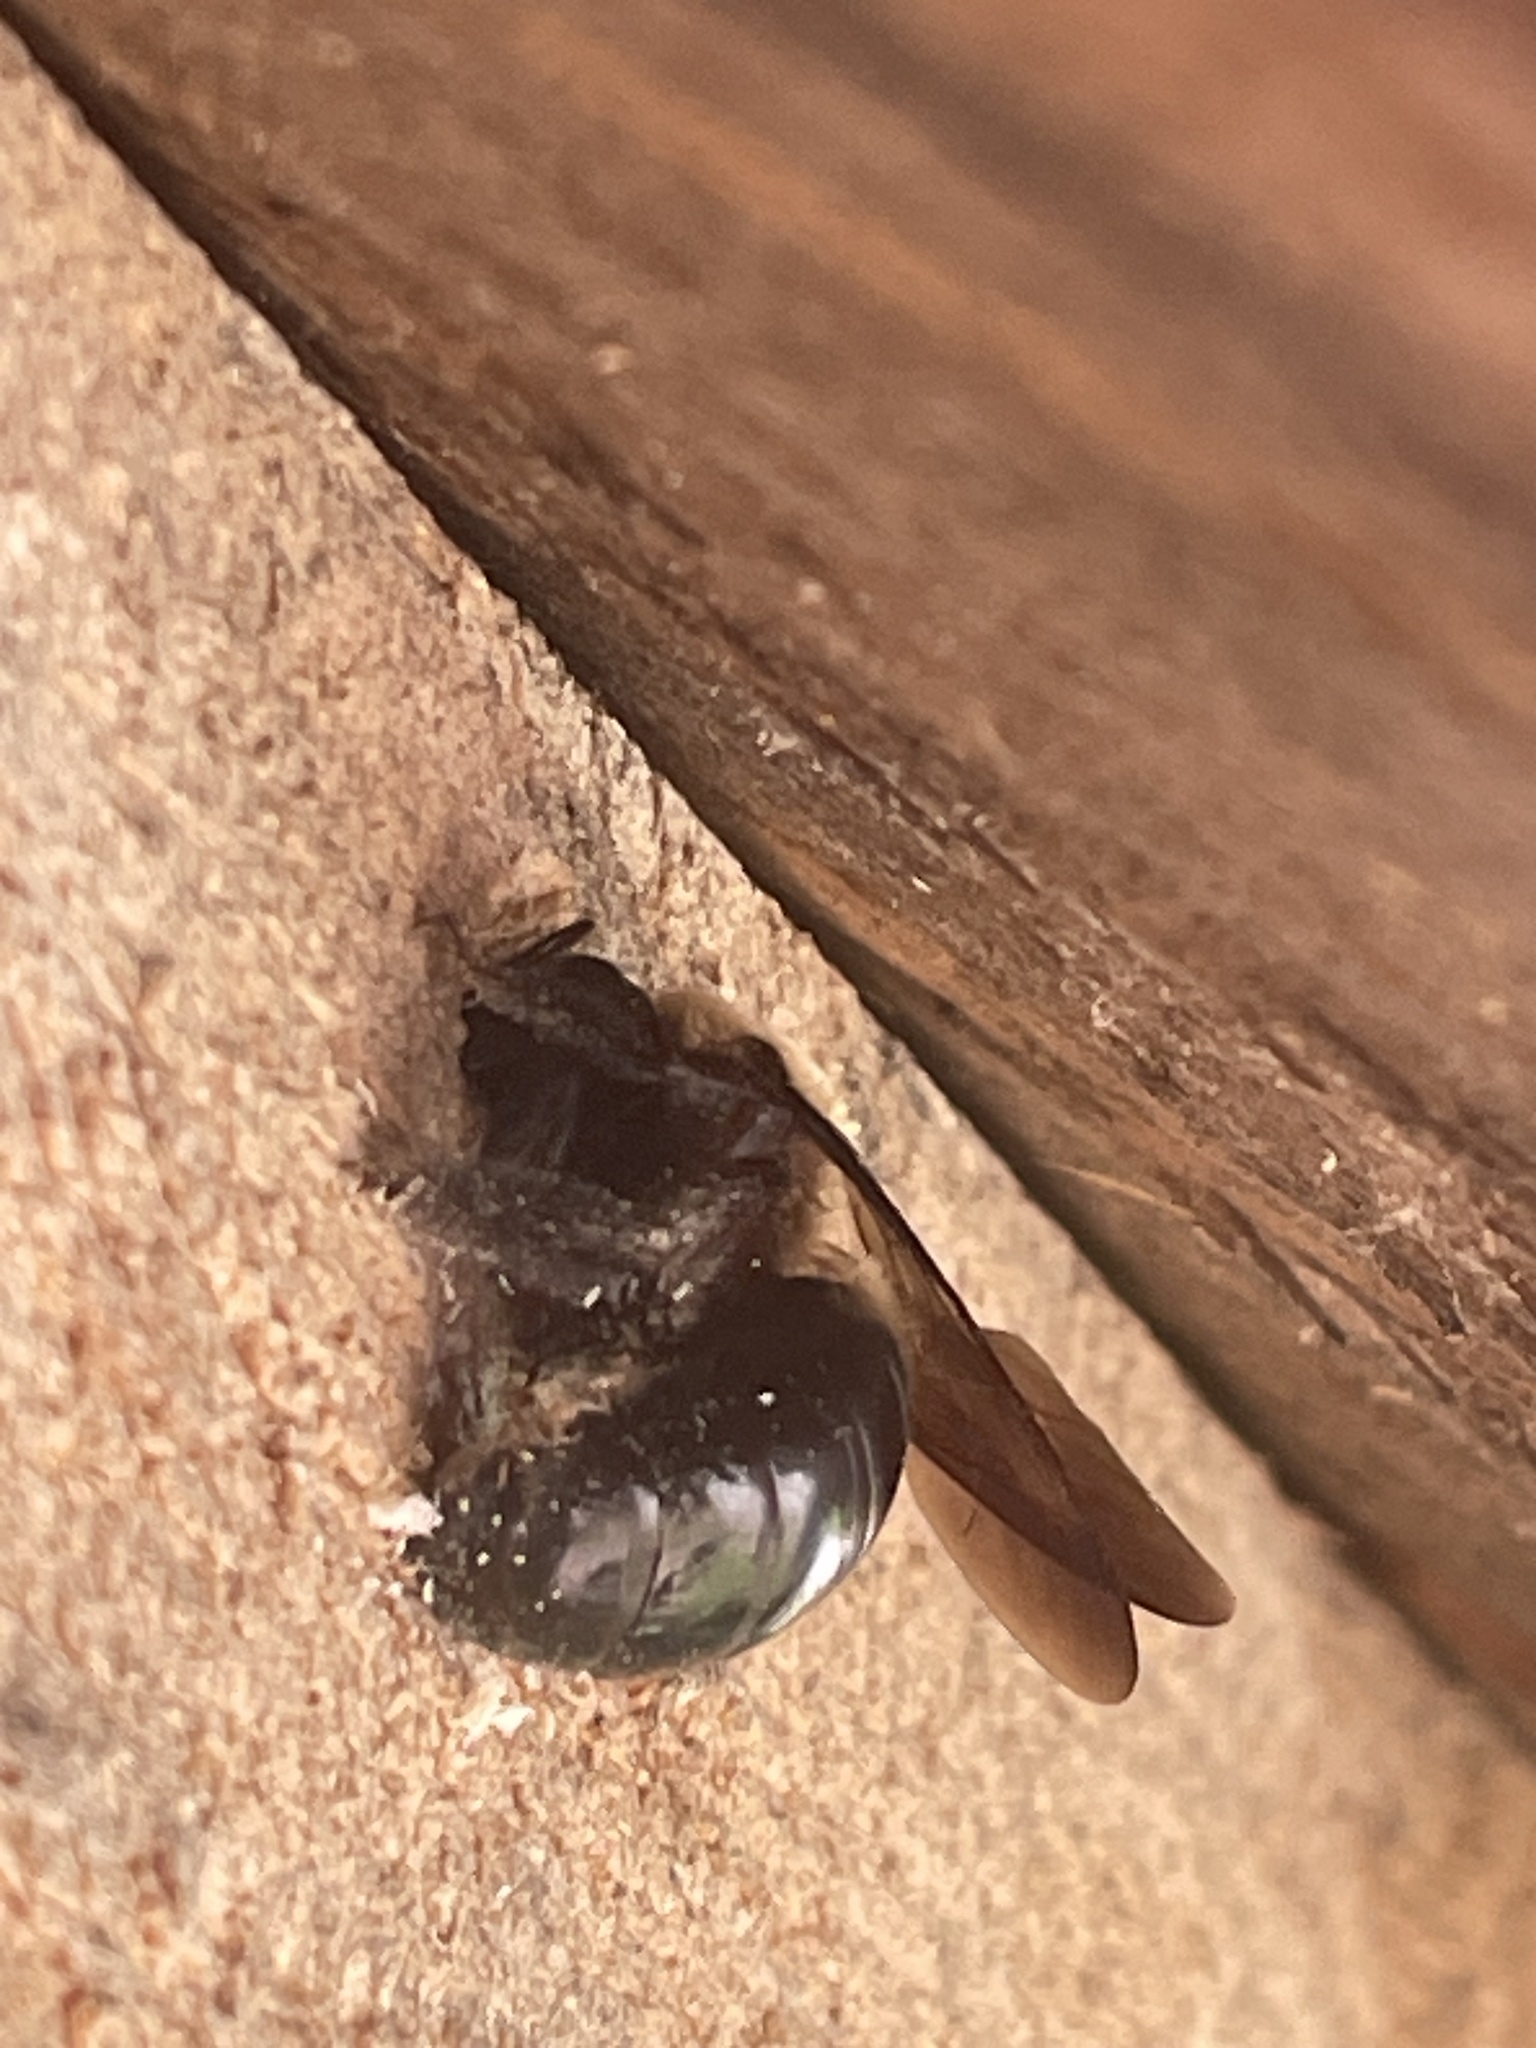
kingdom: Animalia
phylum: Arthropoda
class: Insecta
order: Hymenoptera
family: Apidae
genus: Xylocopa
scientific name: Xylocopa virginica
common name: Carpenter bee
